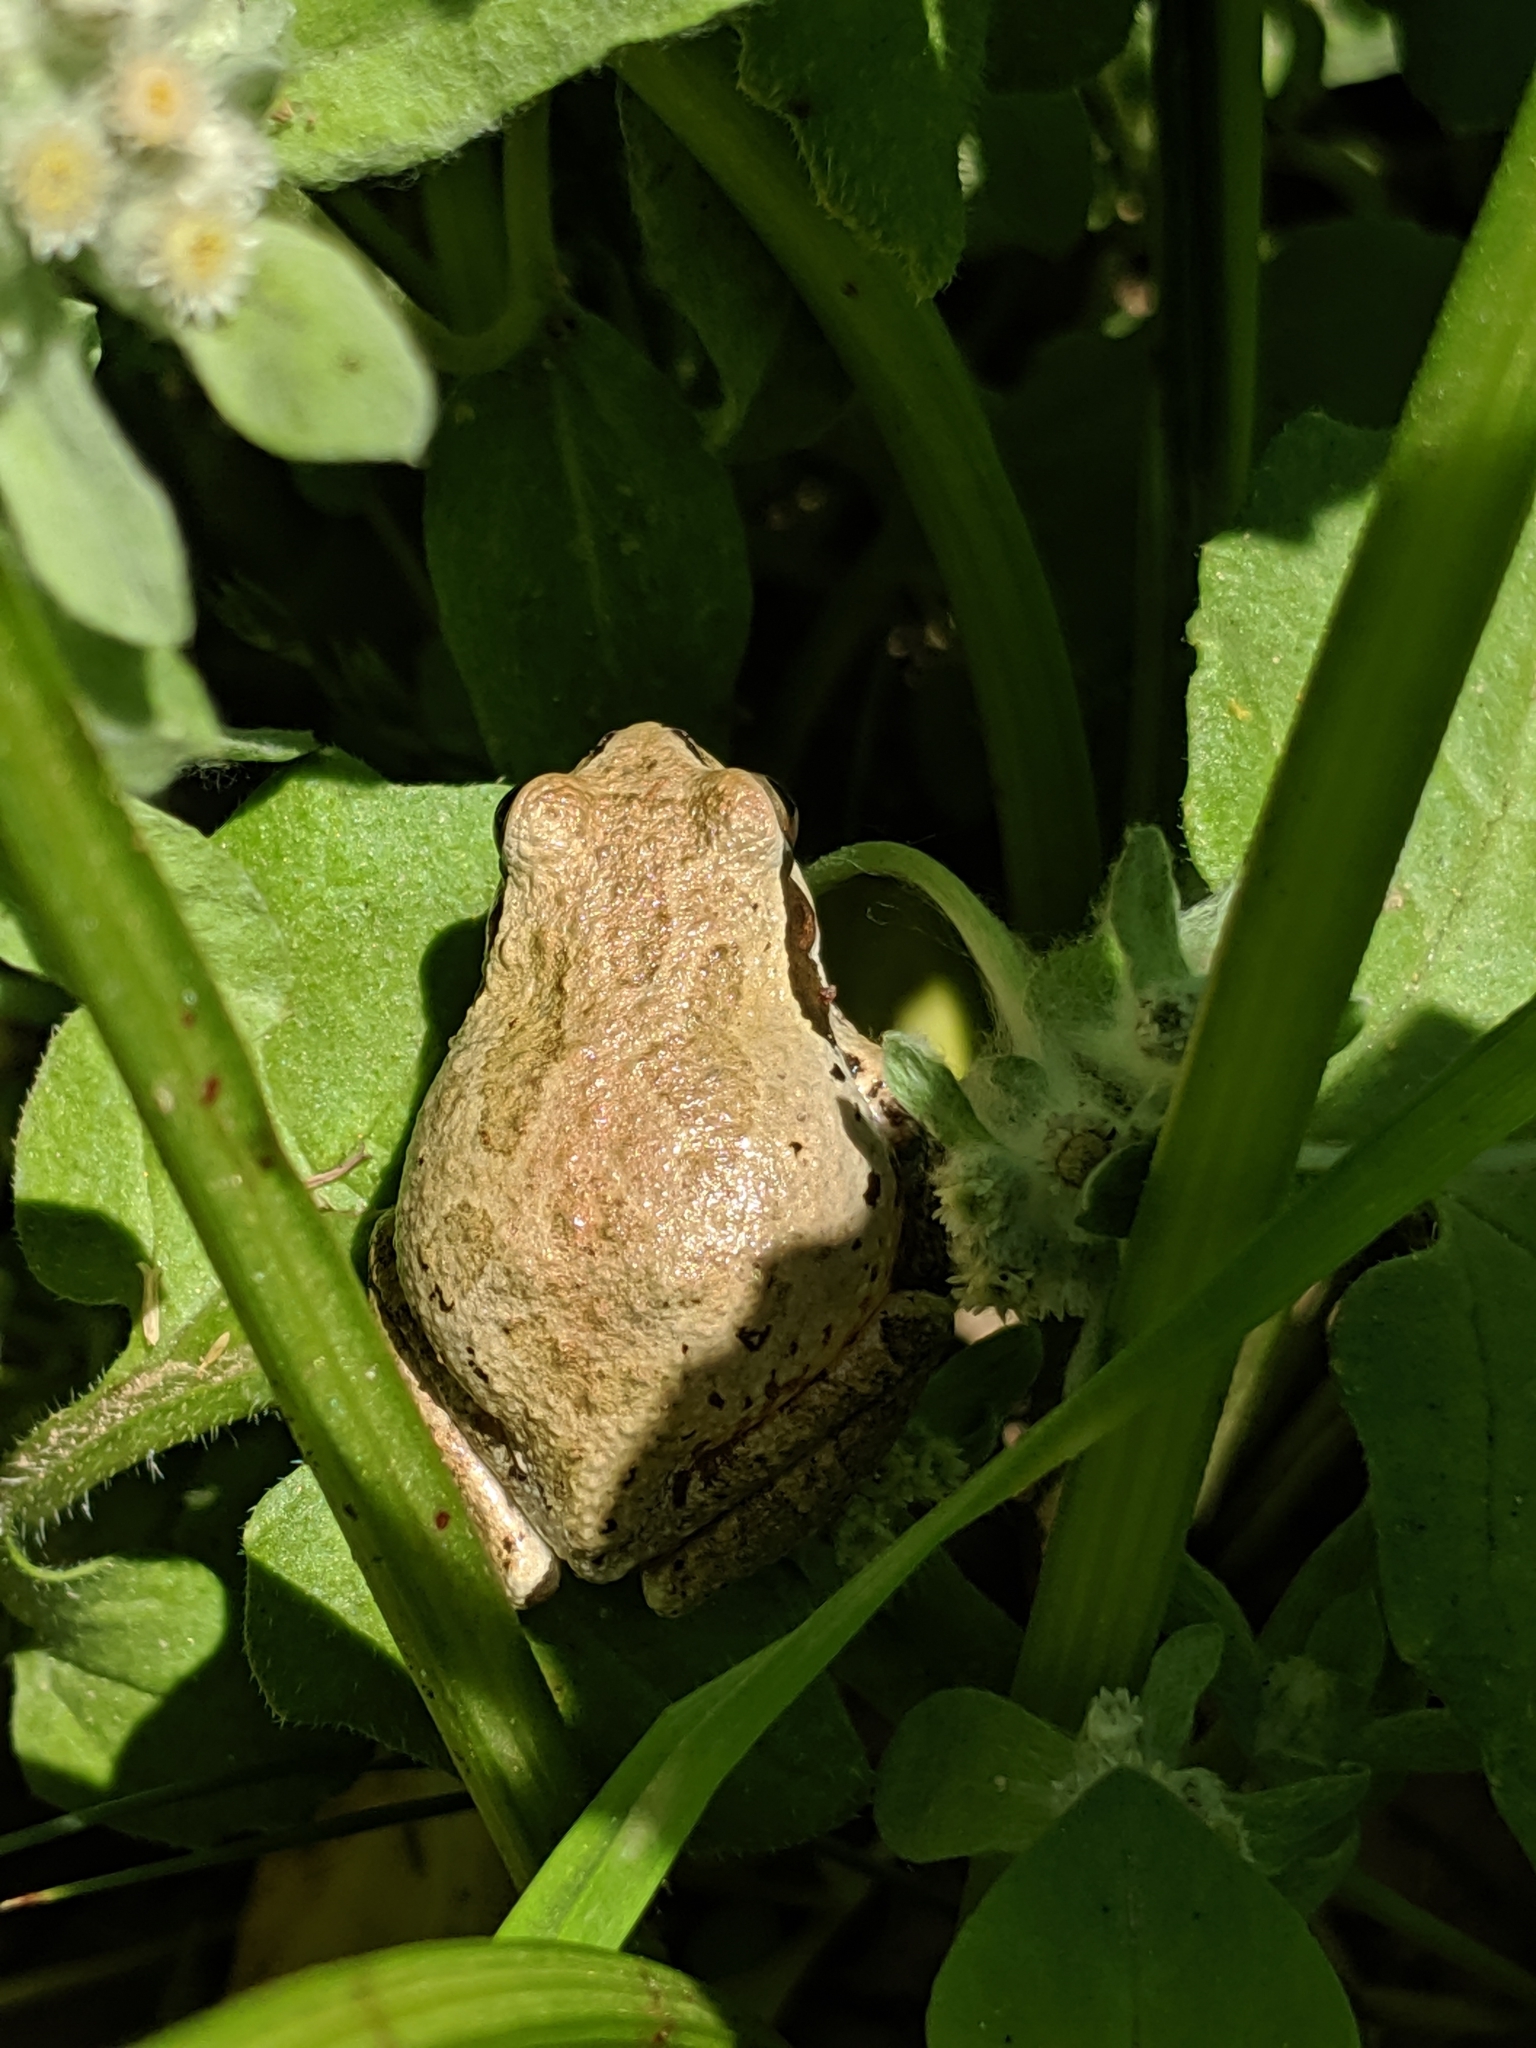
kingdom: Animalia
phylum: Chordata
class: Amphibia
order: Anura
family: Hylidae
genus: Pseudacris
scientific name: Pseudacris regilla
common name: Pacific chorus frog
